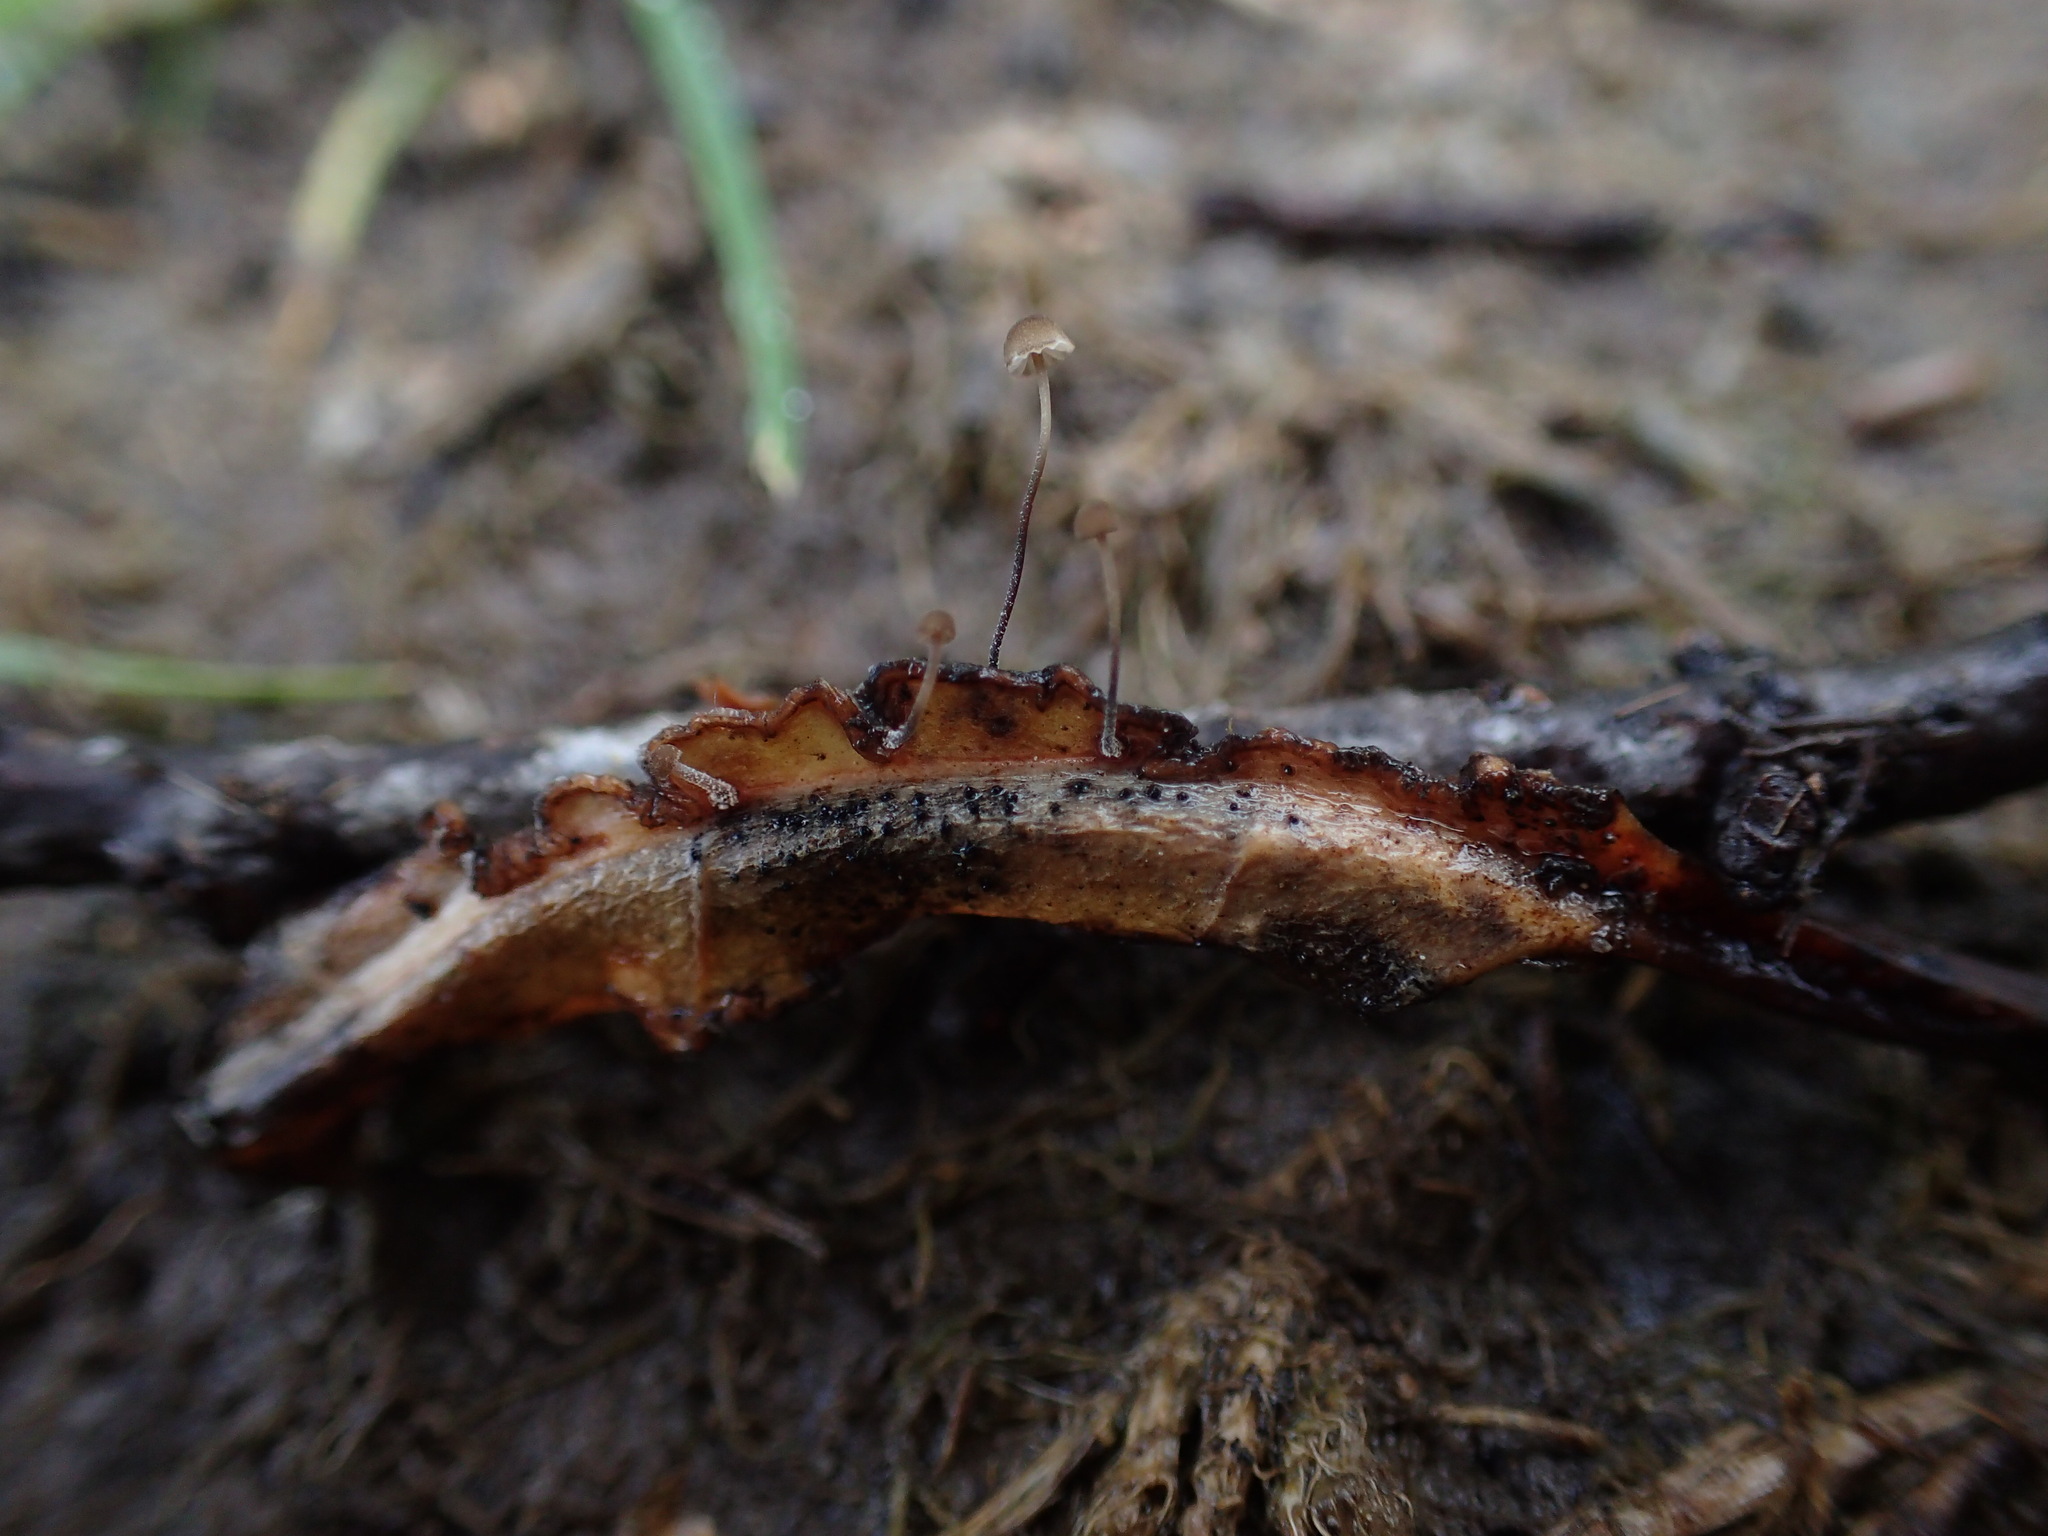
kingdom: Fungi
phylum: Basidiomycota
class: Agaricomycetes
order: Agaricales
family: Physalacriaceae
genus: Cryptomarasmius
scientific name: Cryptomarasmius corbariensis
